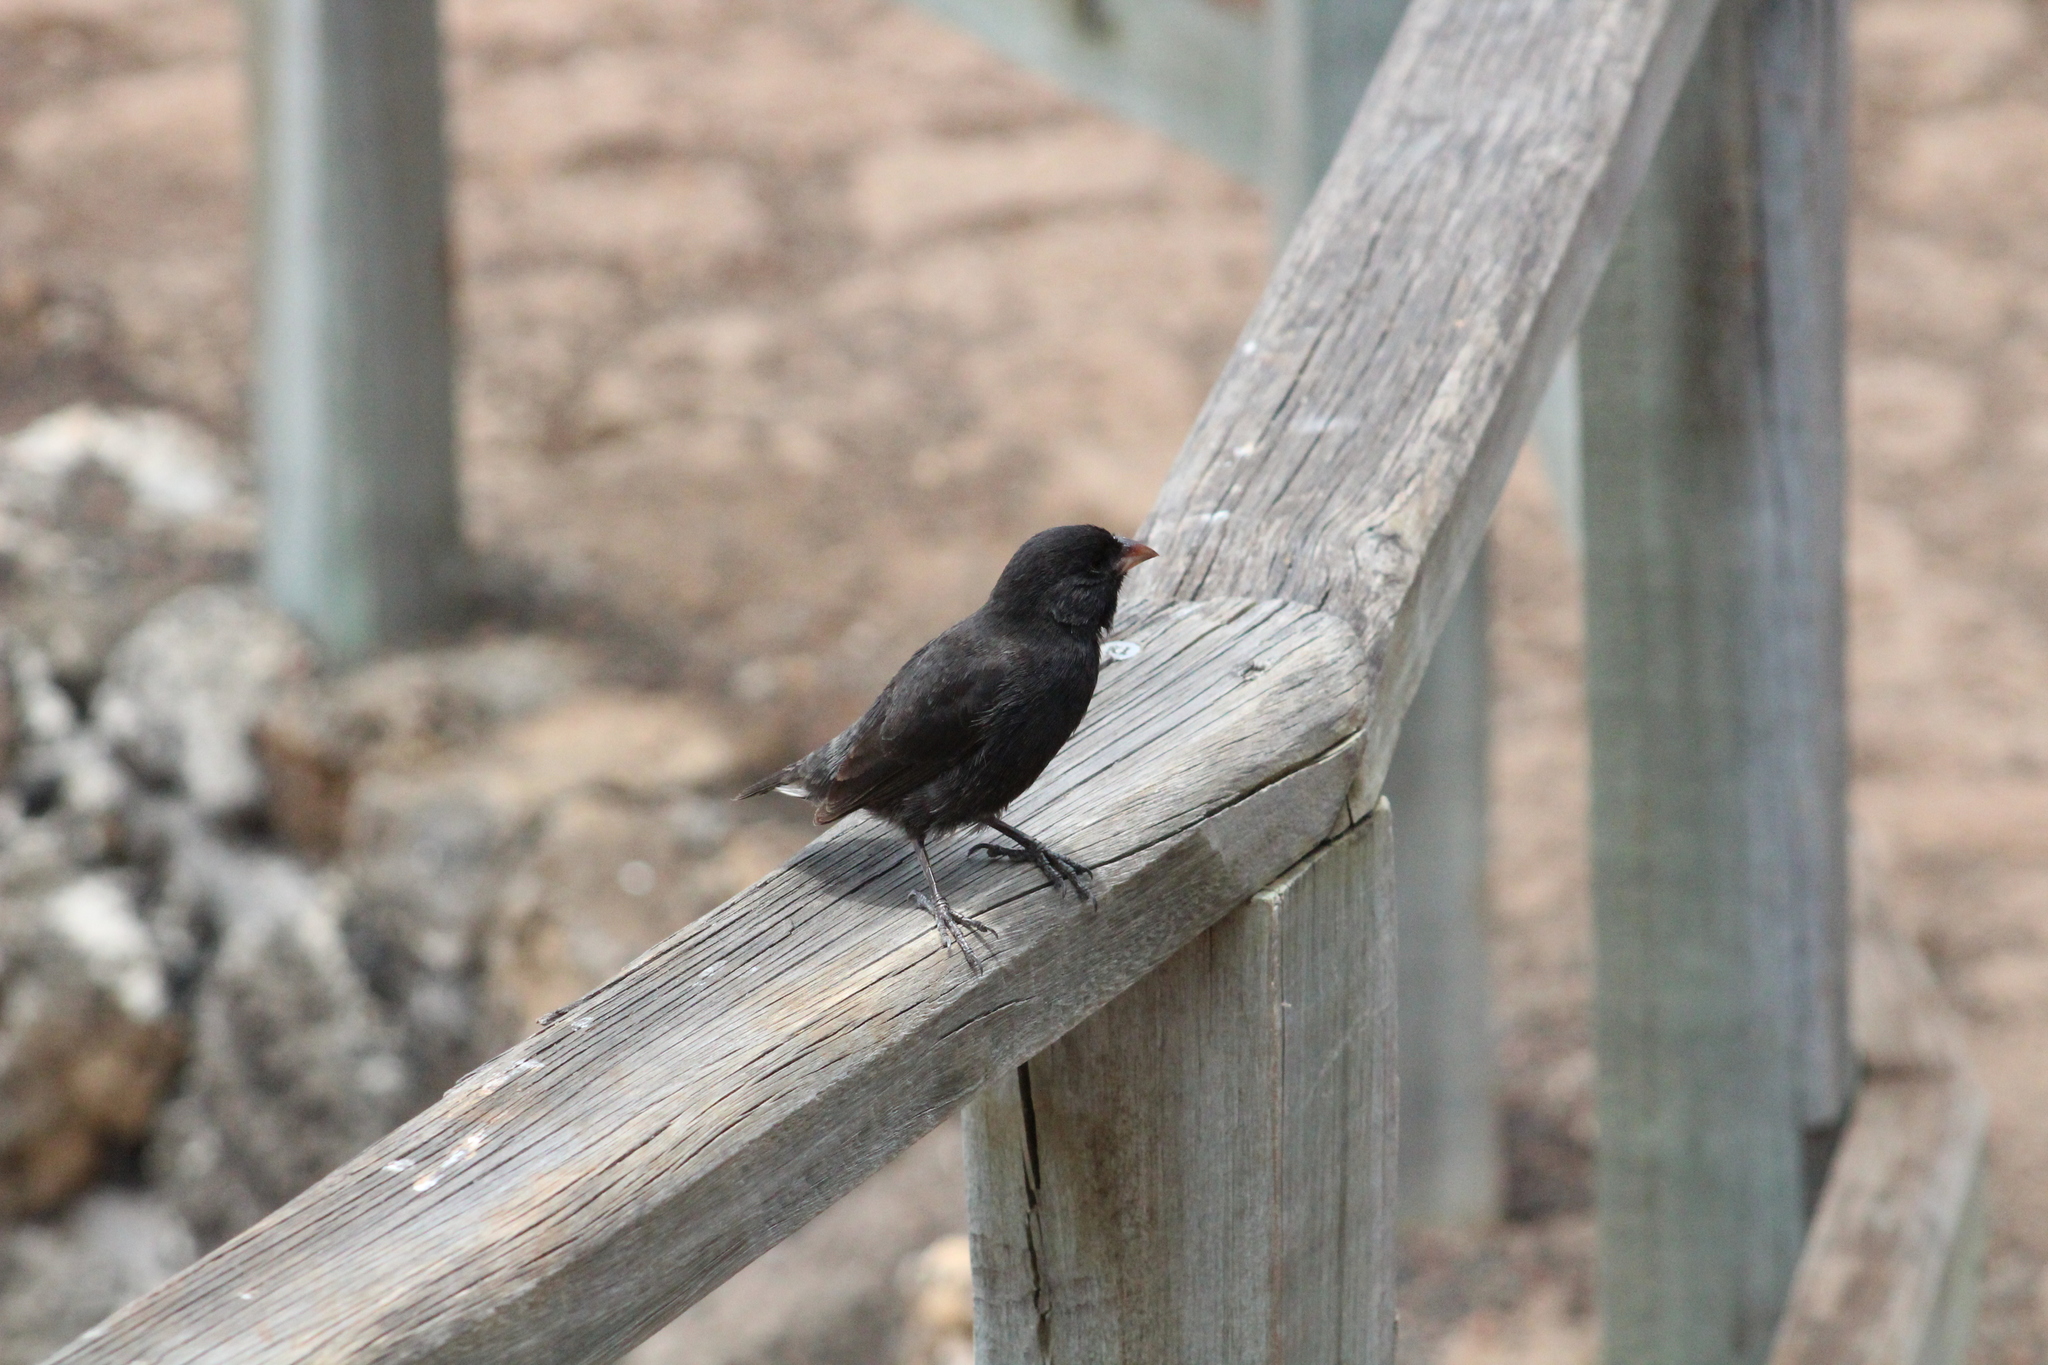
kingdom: Animalia
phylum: Chordata
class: Aves
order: Passeriformes
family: Thraupidae
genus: Geospiza
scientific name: Geospiza fuliginosa
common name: Small ground finch
